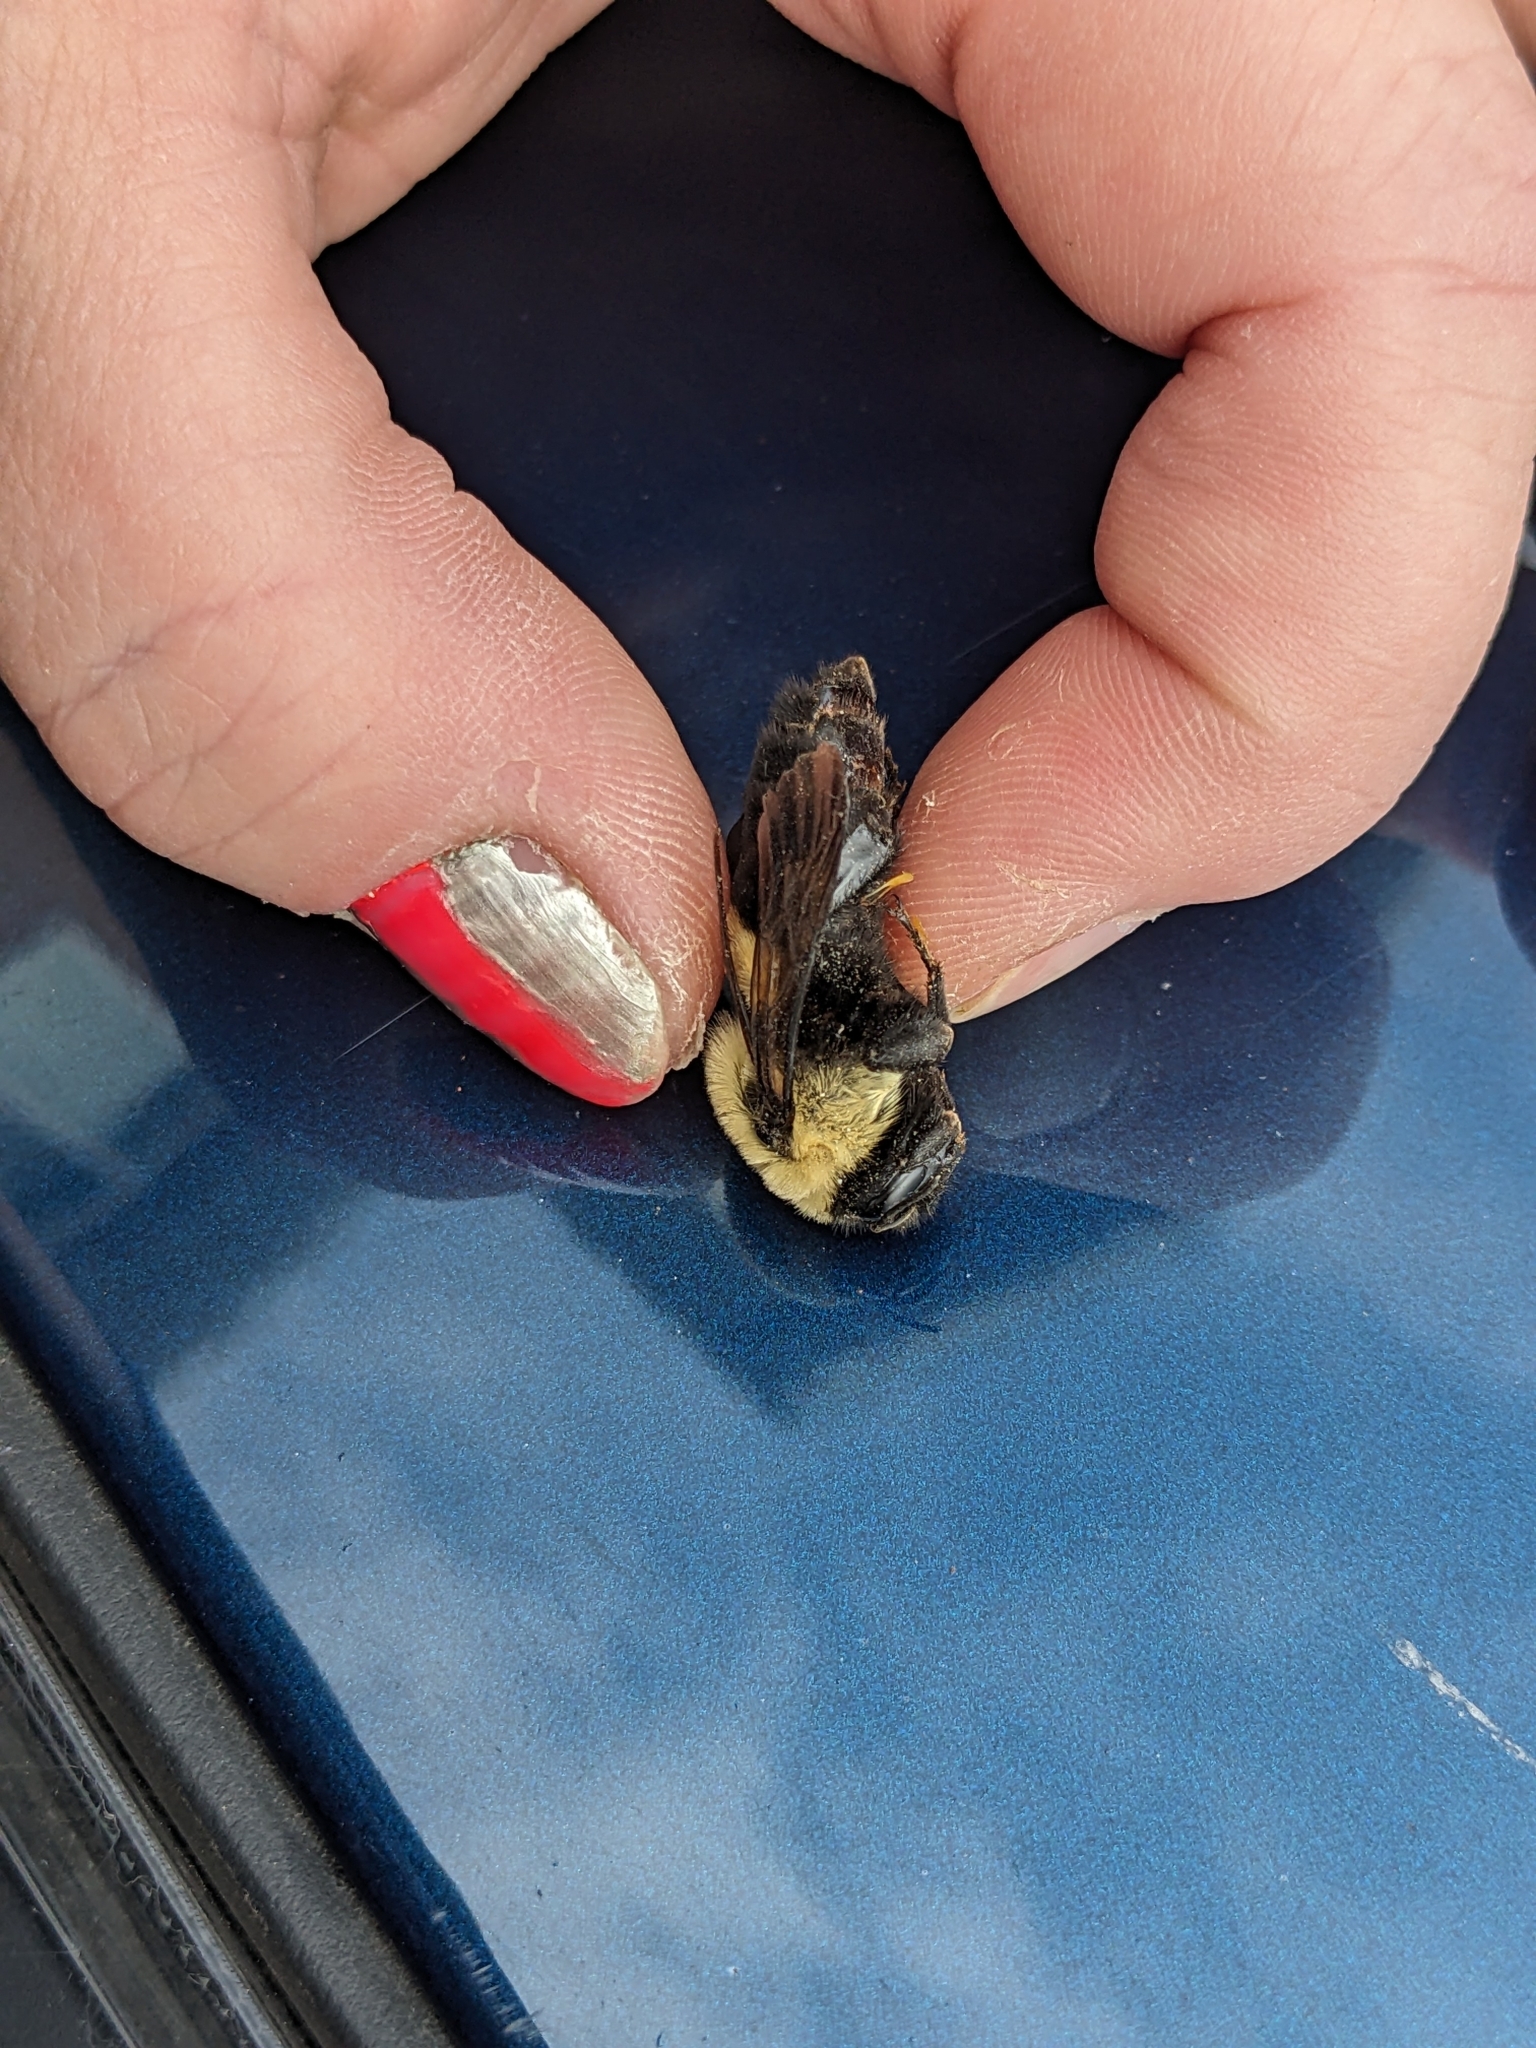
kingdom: Animalia
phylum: Arthropoda
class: Insecta
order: Hymenoptera
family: Apidae
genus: Bombus
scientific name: Bombus griseocollis
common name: Brown-belted bumble bee
